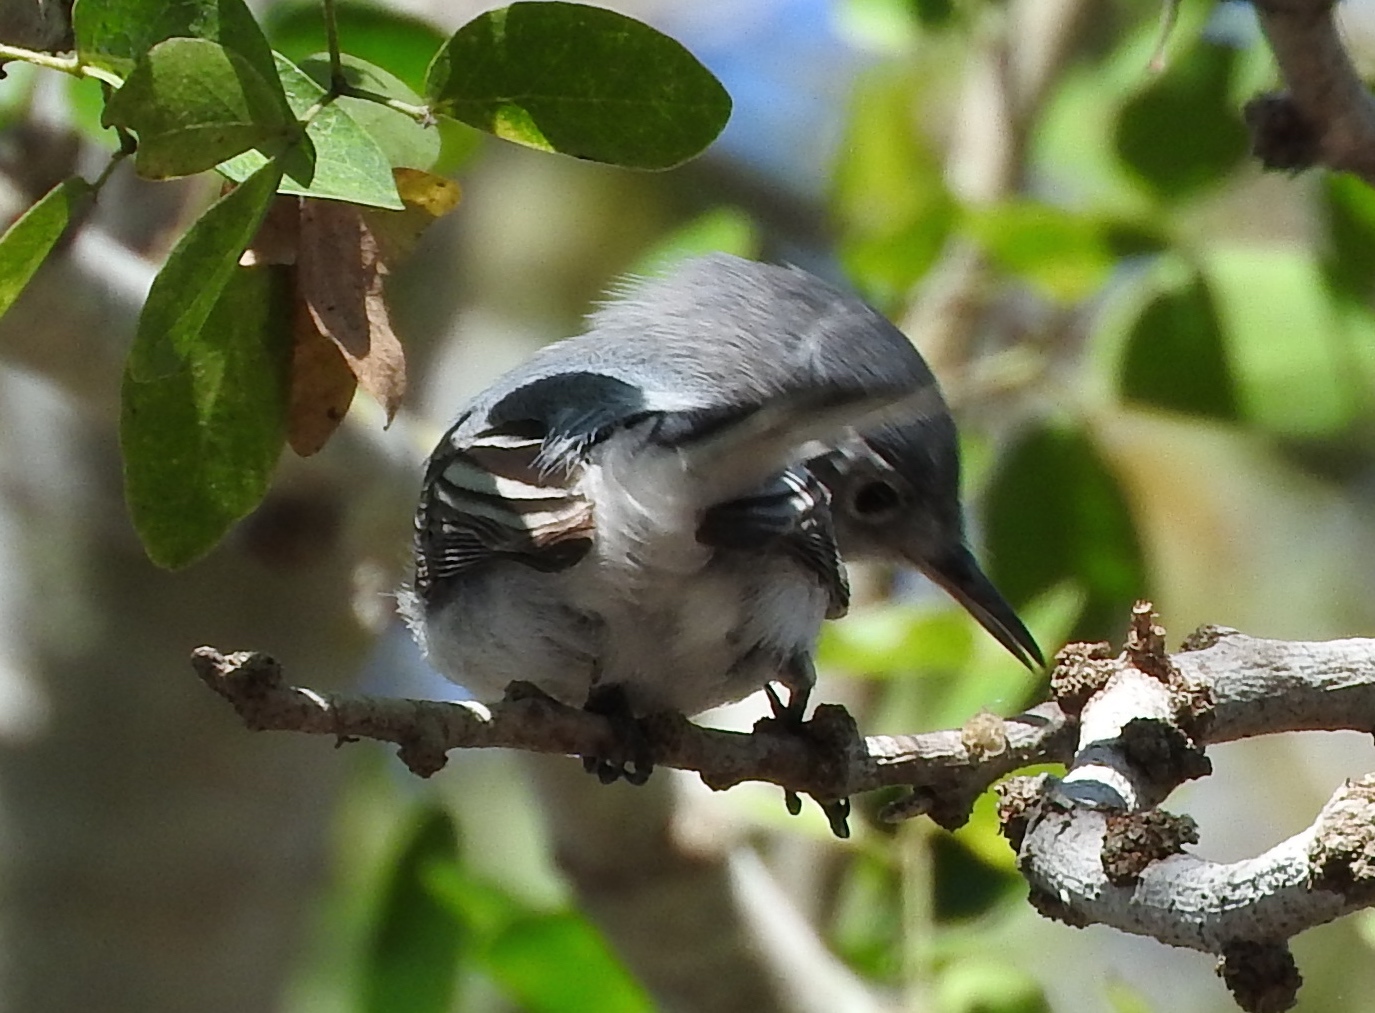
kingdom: Animalia
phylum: Chordata
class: Aves
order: Passeriformes
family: Polioptilidae
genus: Polioptila
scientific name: Polioptila caerulea
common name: Blue-gray gnatcatcher
